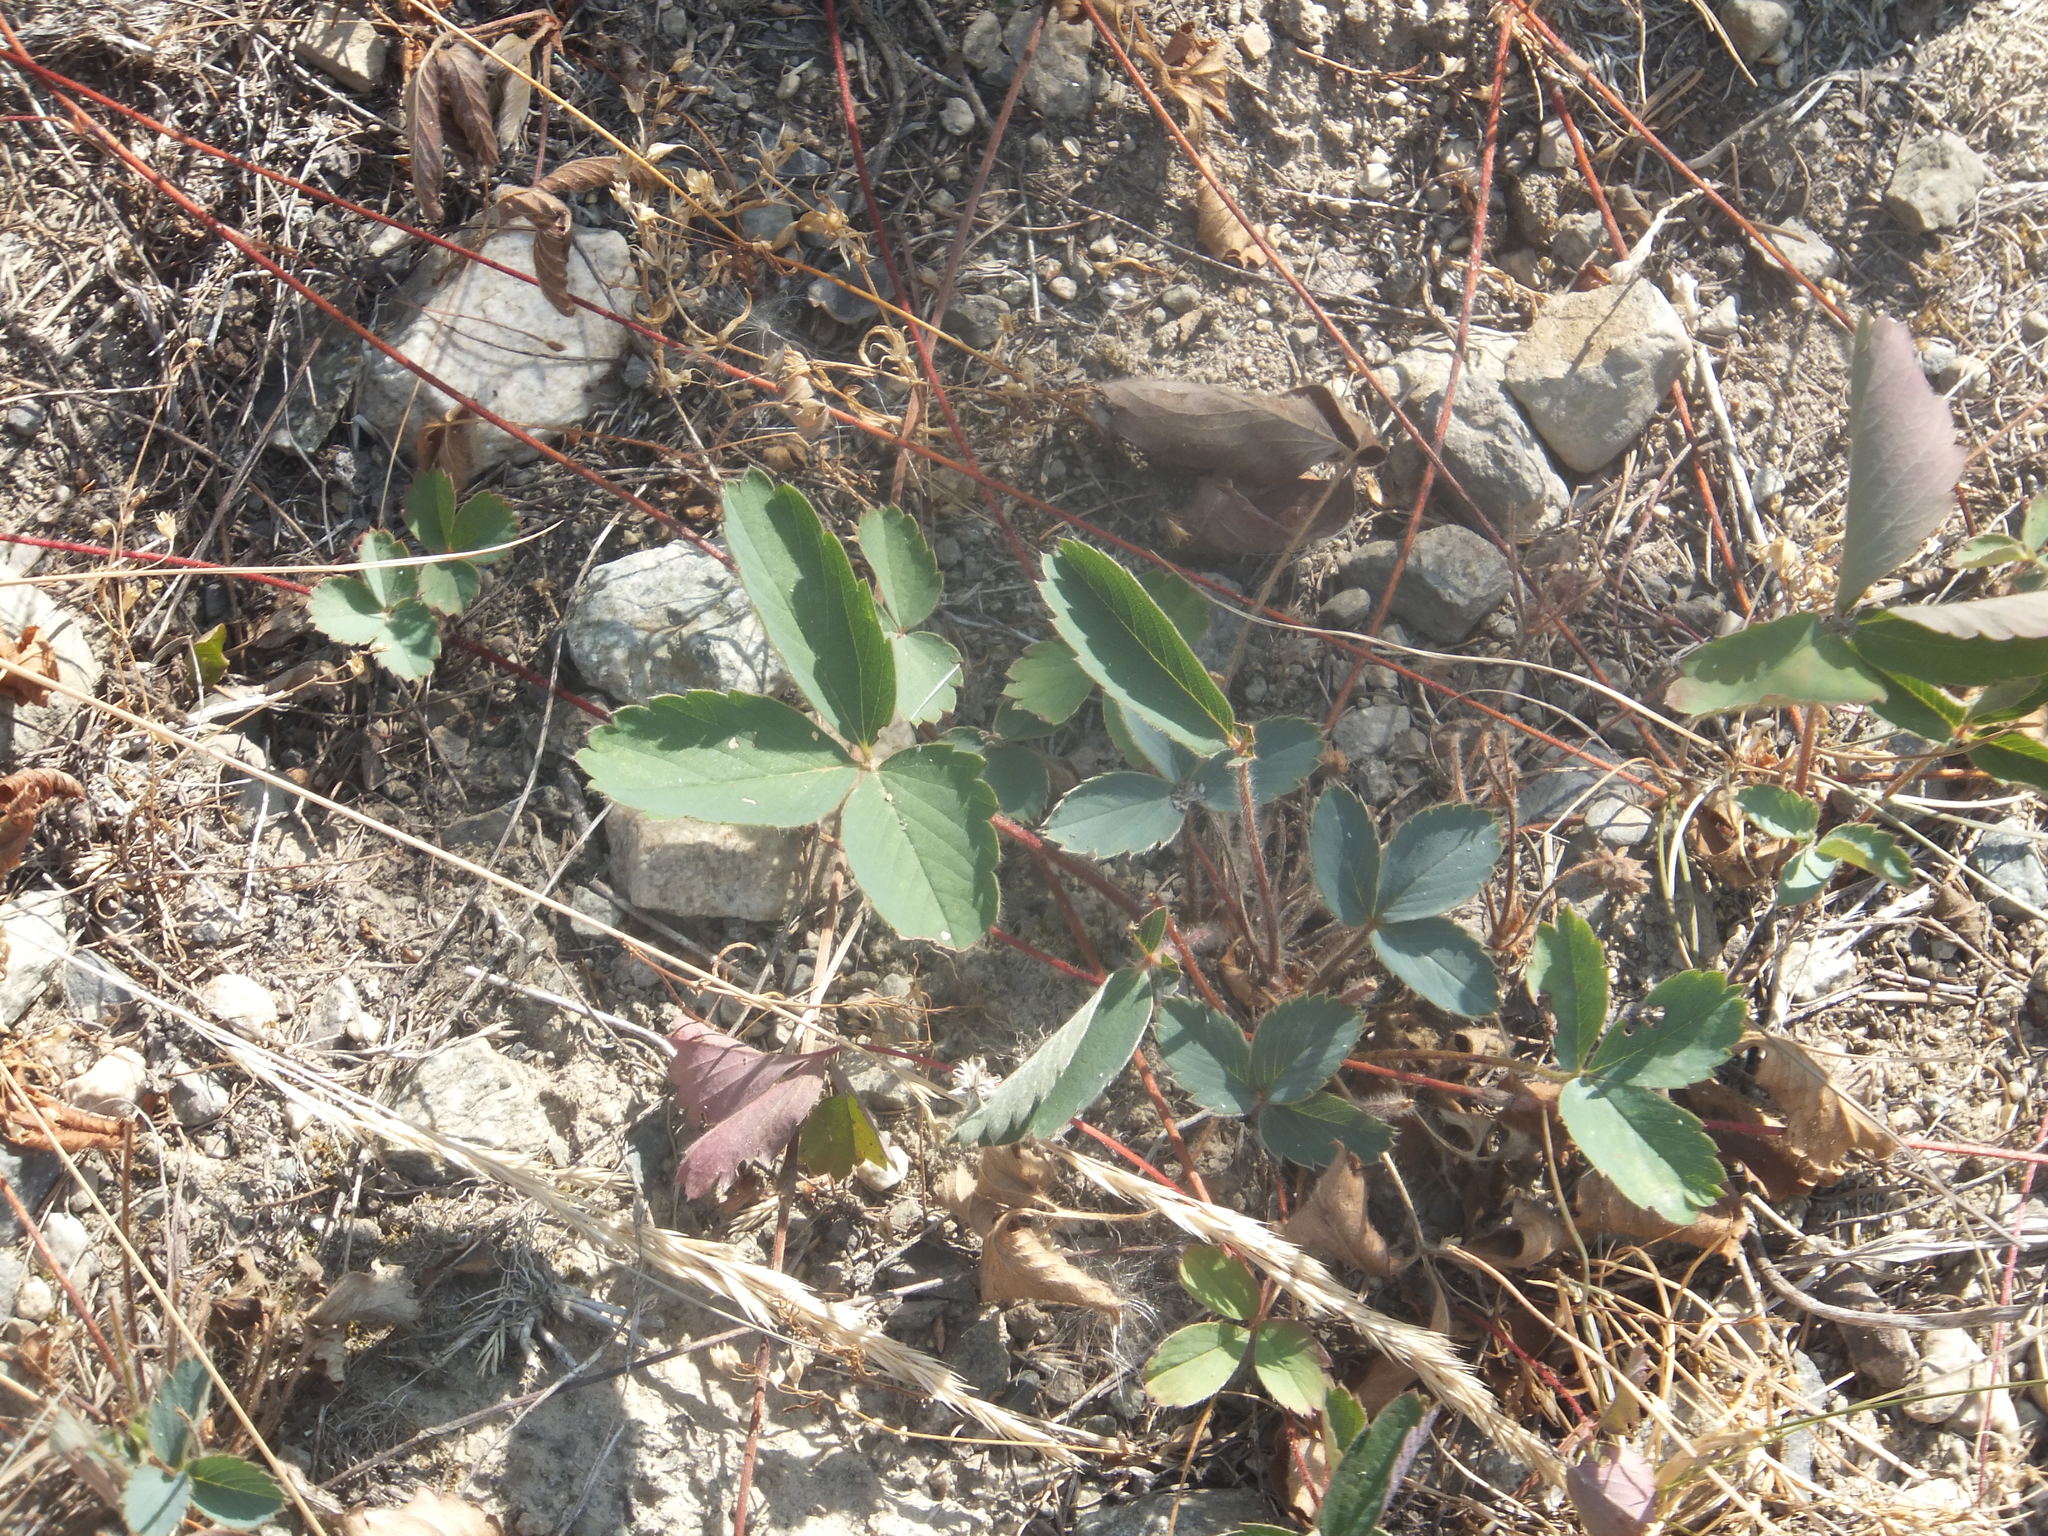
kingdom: Plantae
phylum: Tracheophyta
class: Magnoliopsida
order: Rosales
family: Rosaceae
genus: Fragaria
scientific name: Fragaria virginiana
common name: Thickleaved wild strawberry
